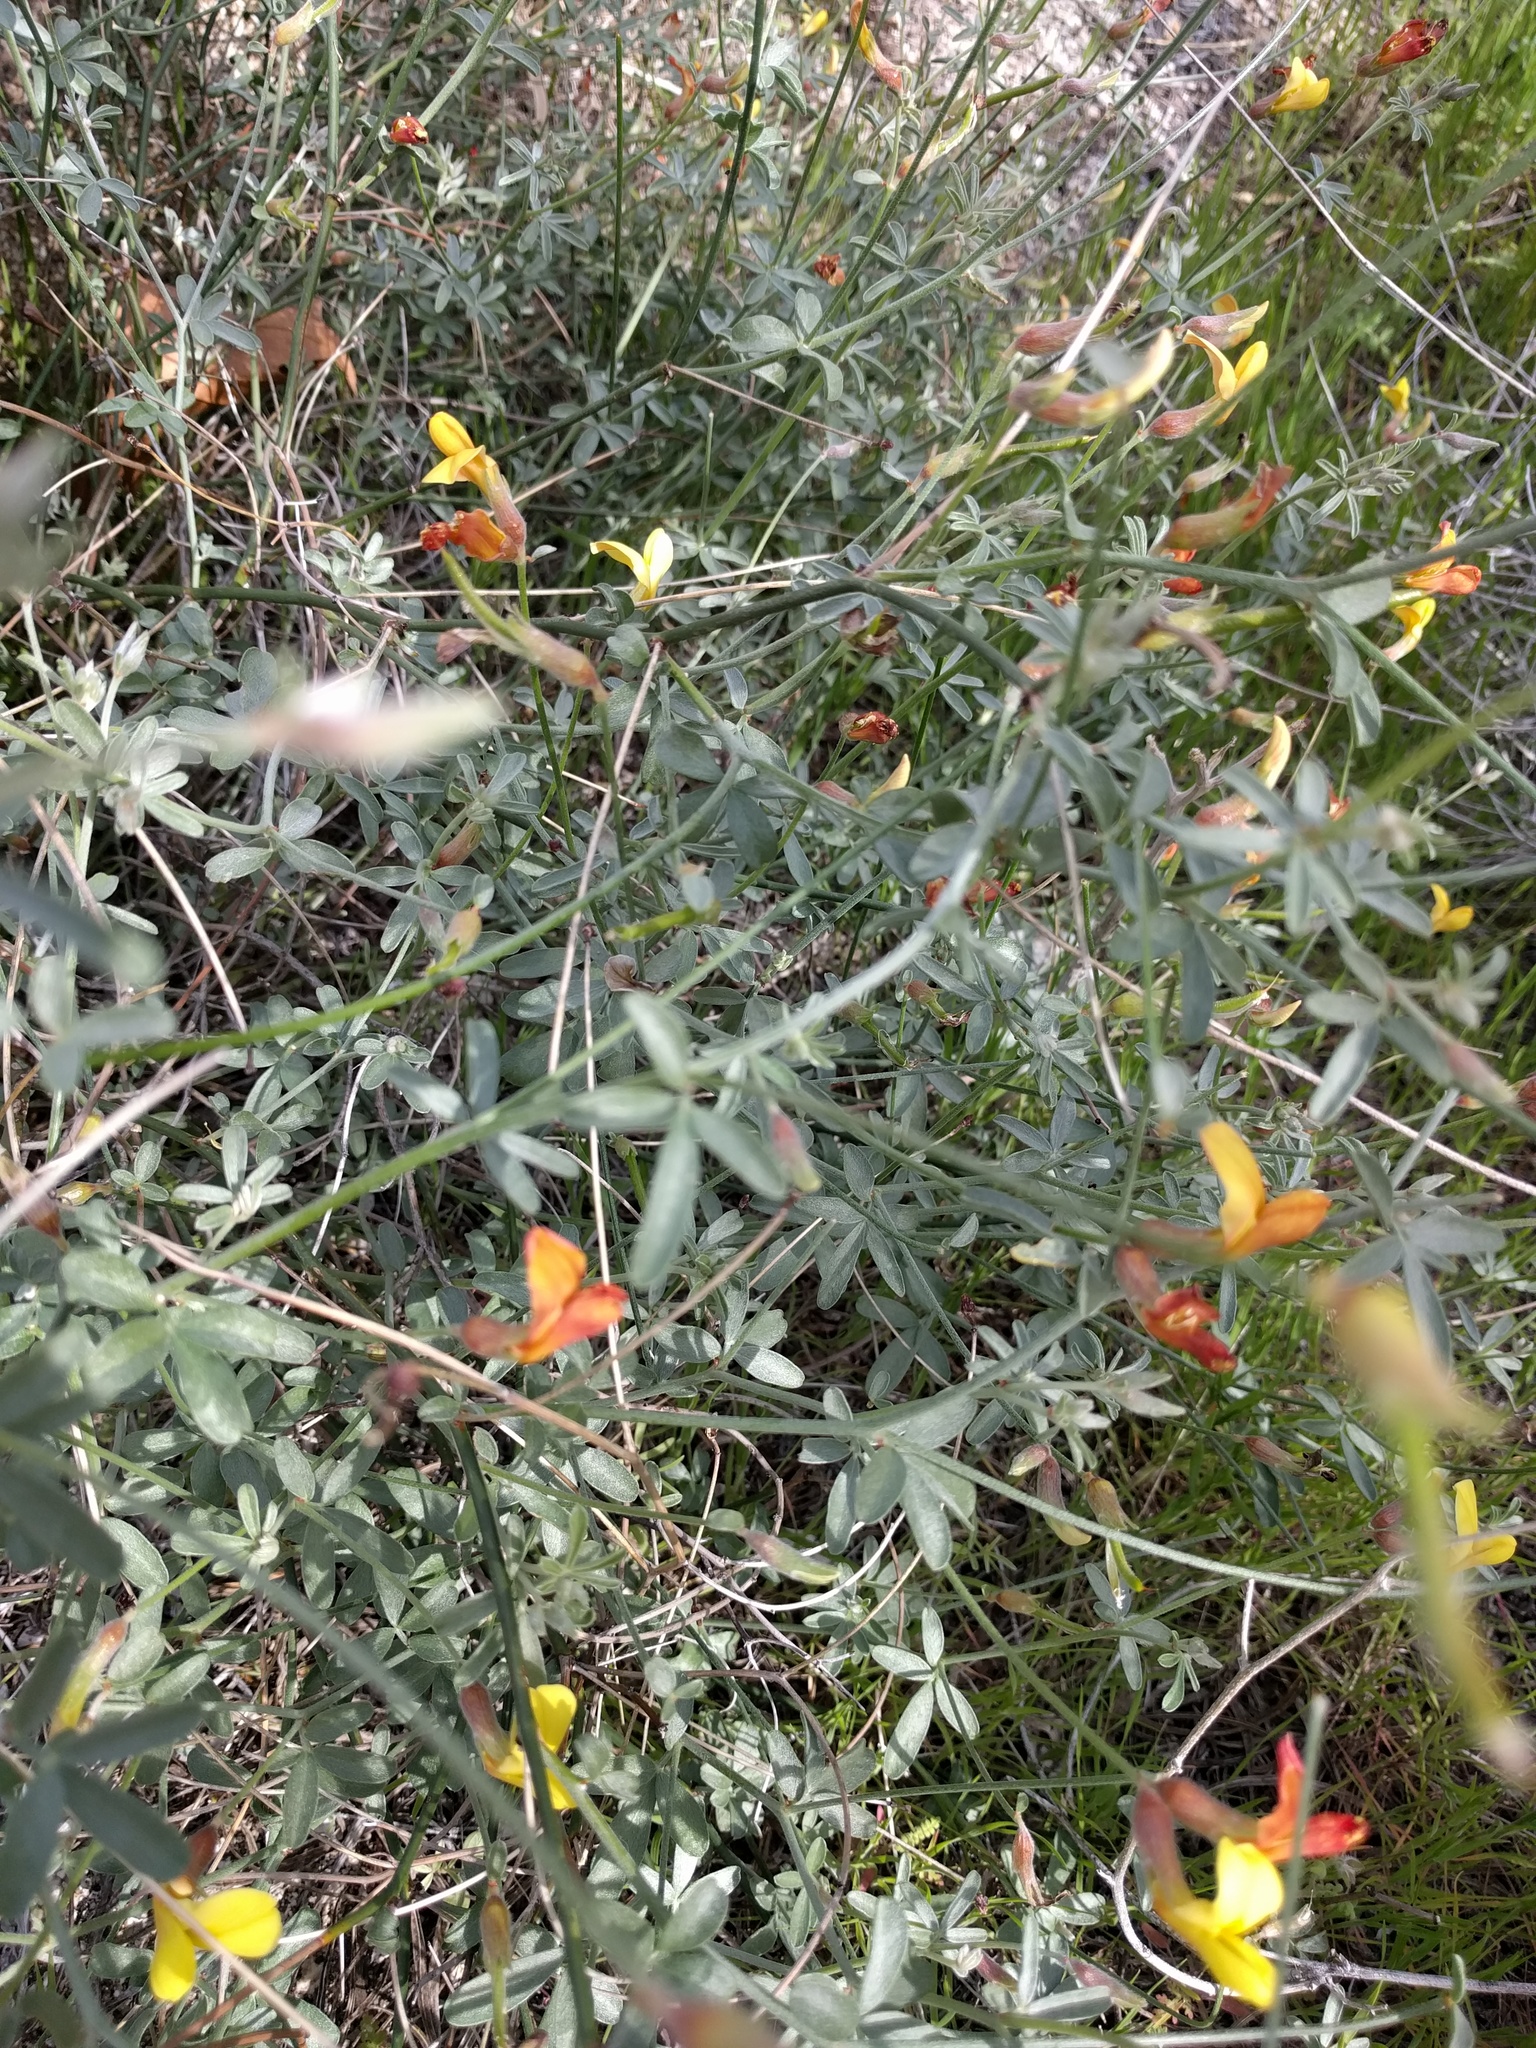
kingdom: Plantae
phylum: Tracheophyta
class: Magnoliopsida
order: Fabales
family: Fabaceae
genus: Acmispon
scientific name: Acmispon rigidus
